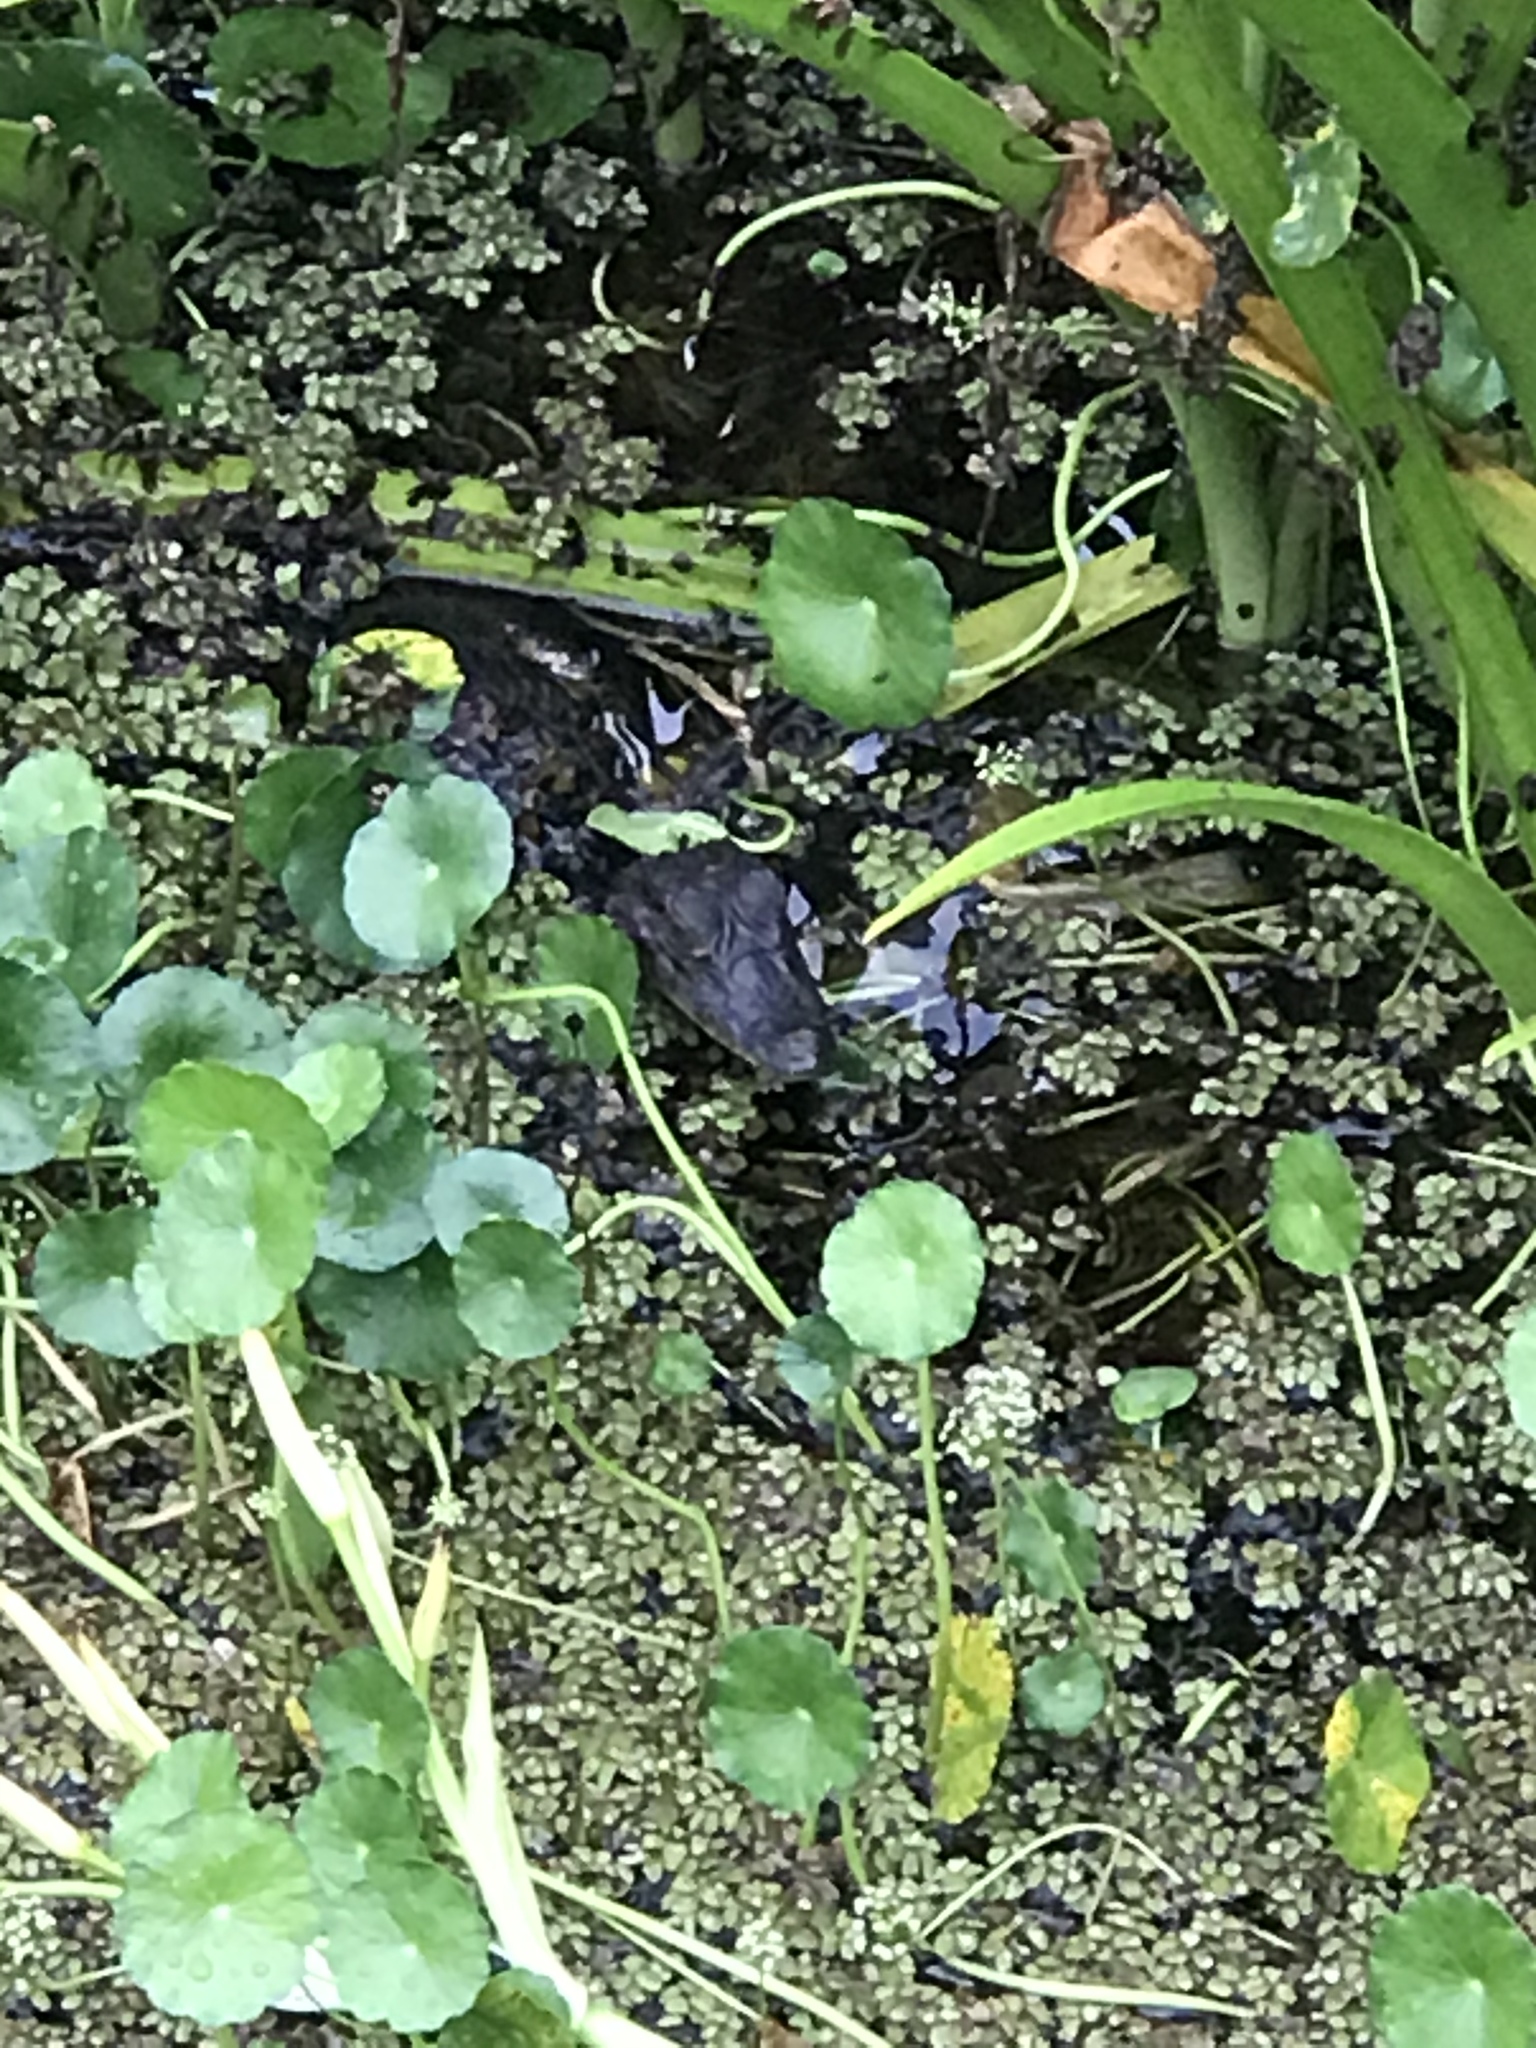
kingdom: Animalia
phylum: Chordata
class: Crocodylia
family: Alligatoridae
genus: Caiman
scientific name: Caiman crocodilus
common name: Common caiman
